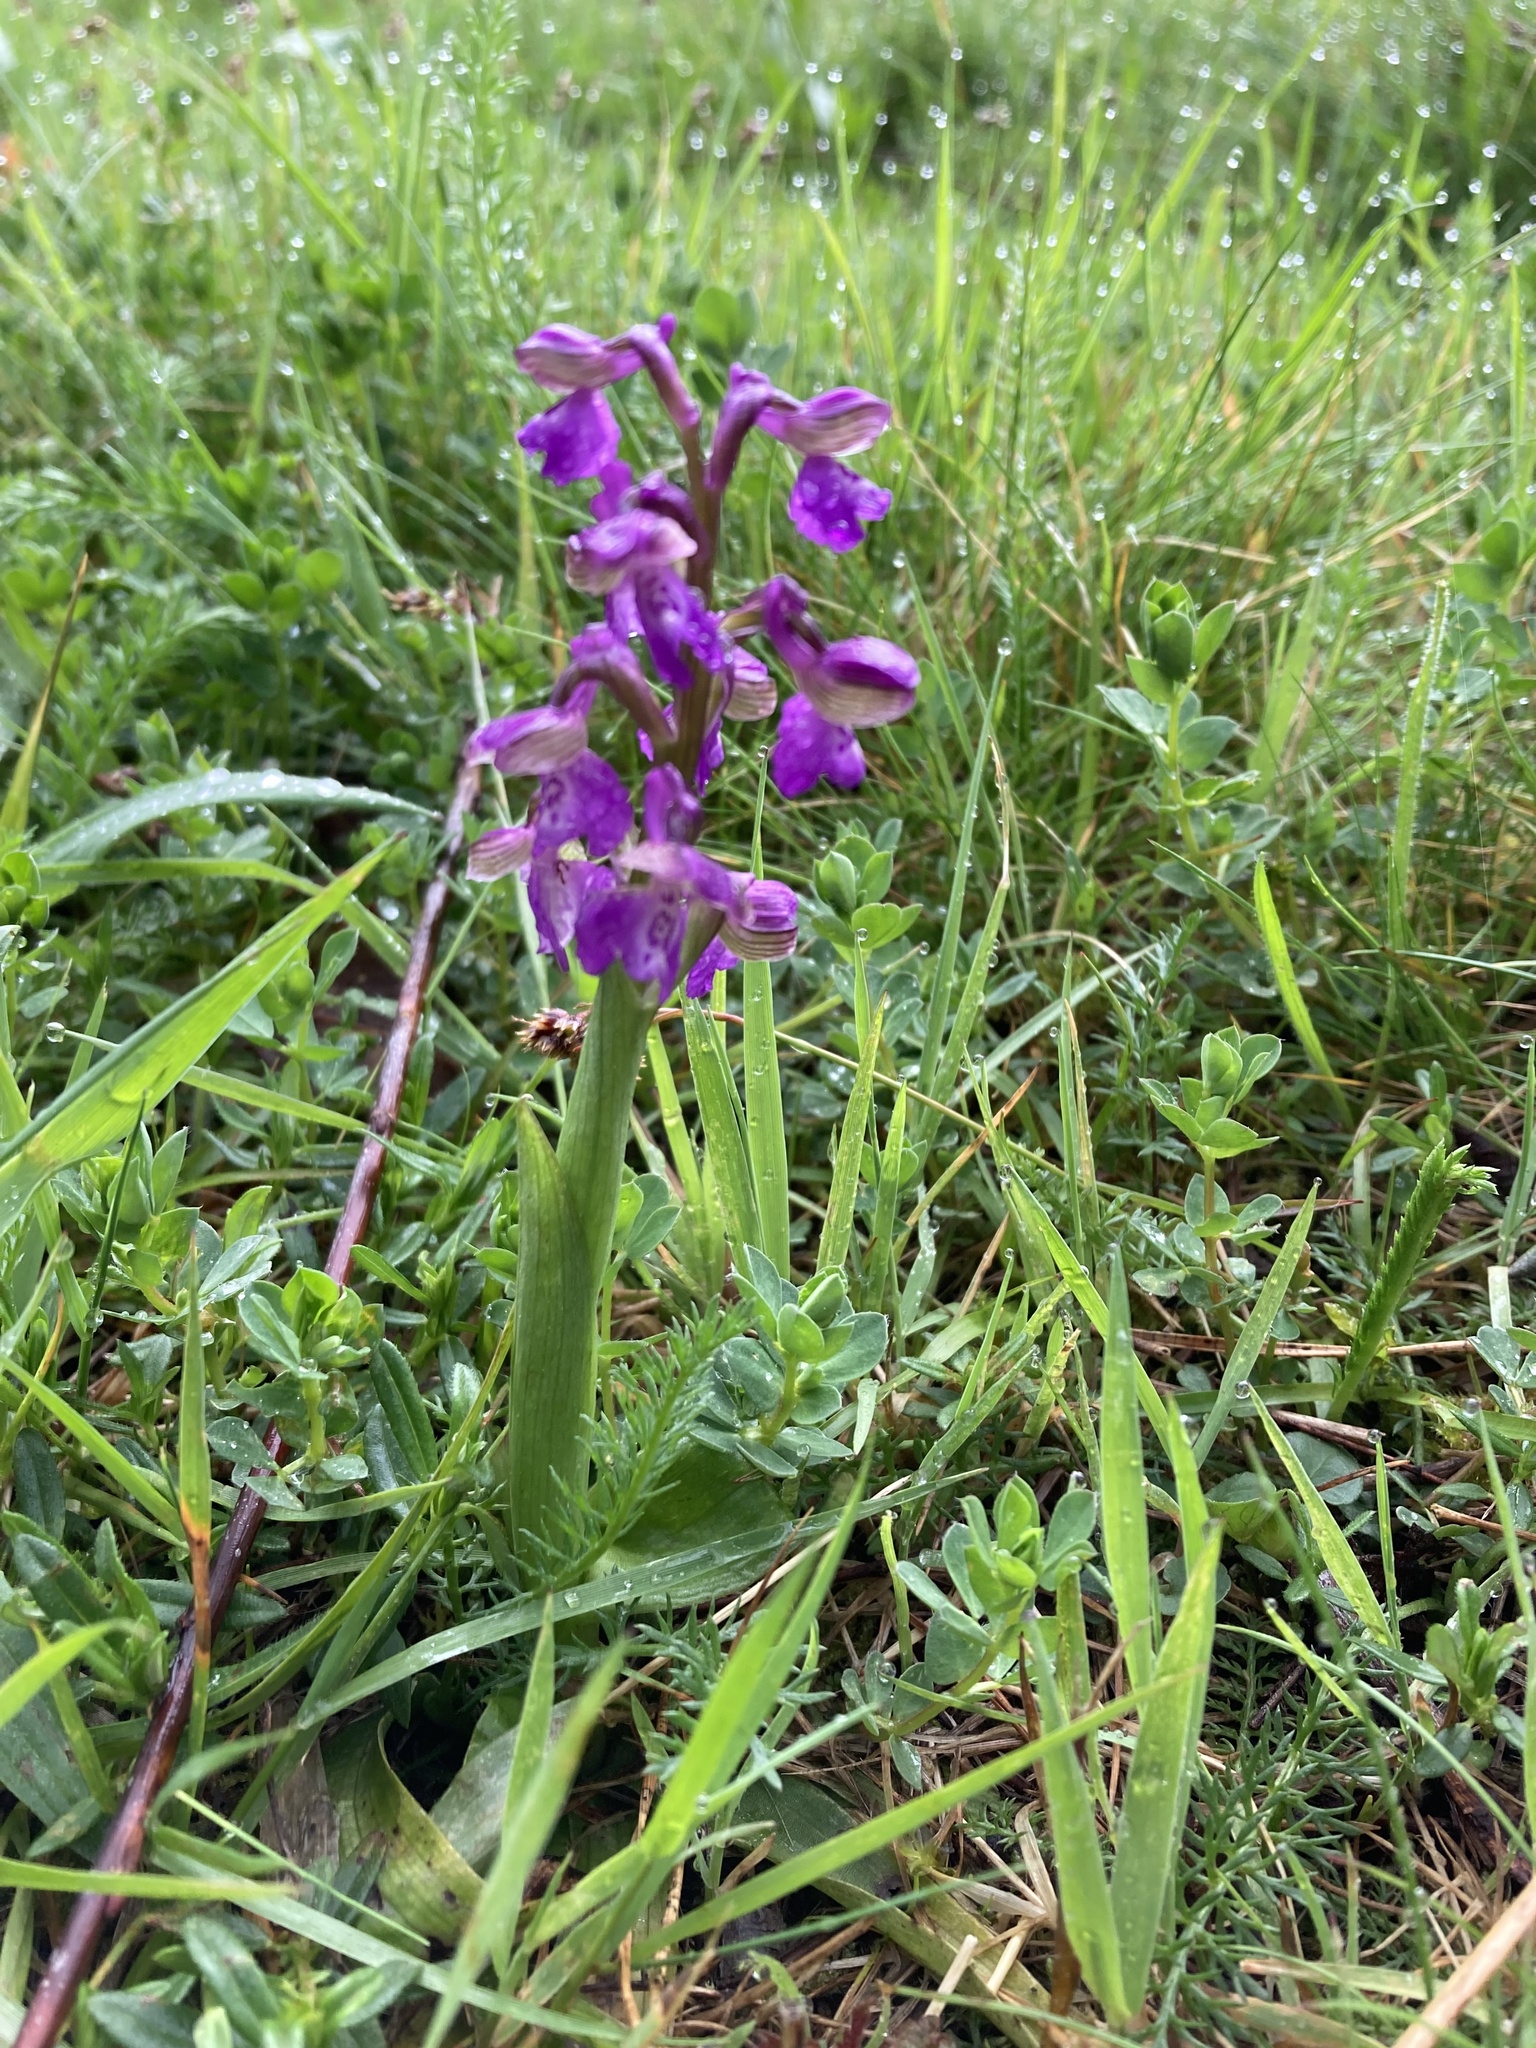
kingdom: Plantae
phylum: Tracheophyta
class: Liliopsida
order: Asparagales
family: Orchidaceae
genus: Anacamptis
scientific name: Anacamptis morio
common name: Green-winged orchid
